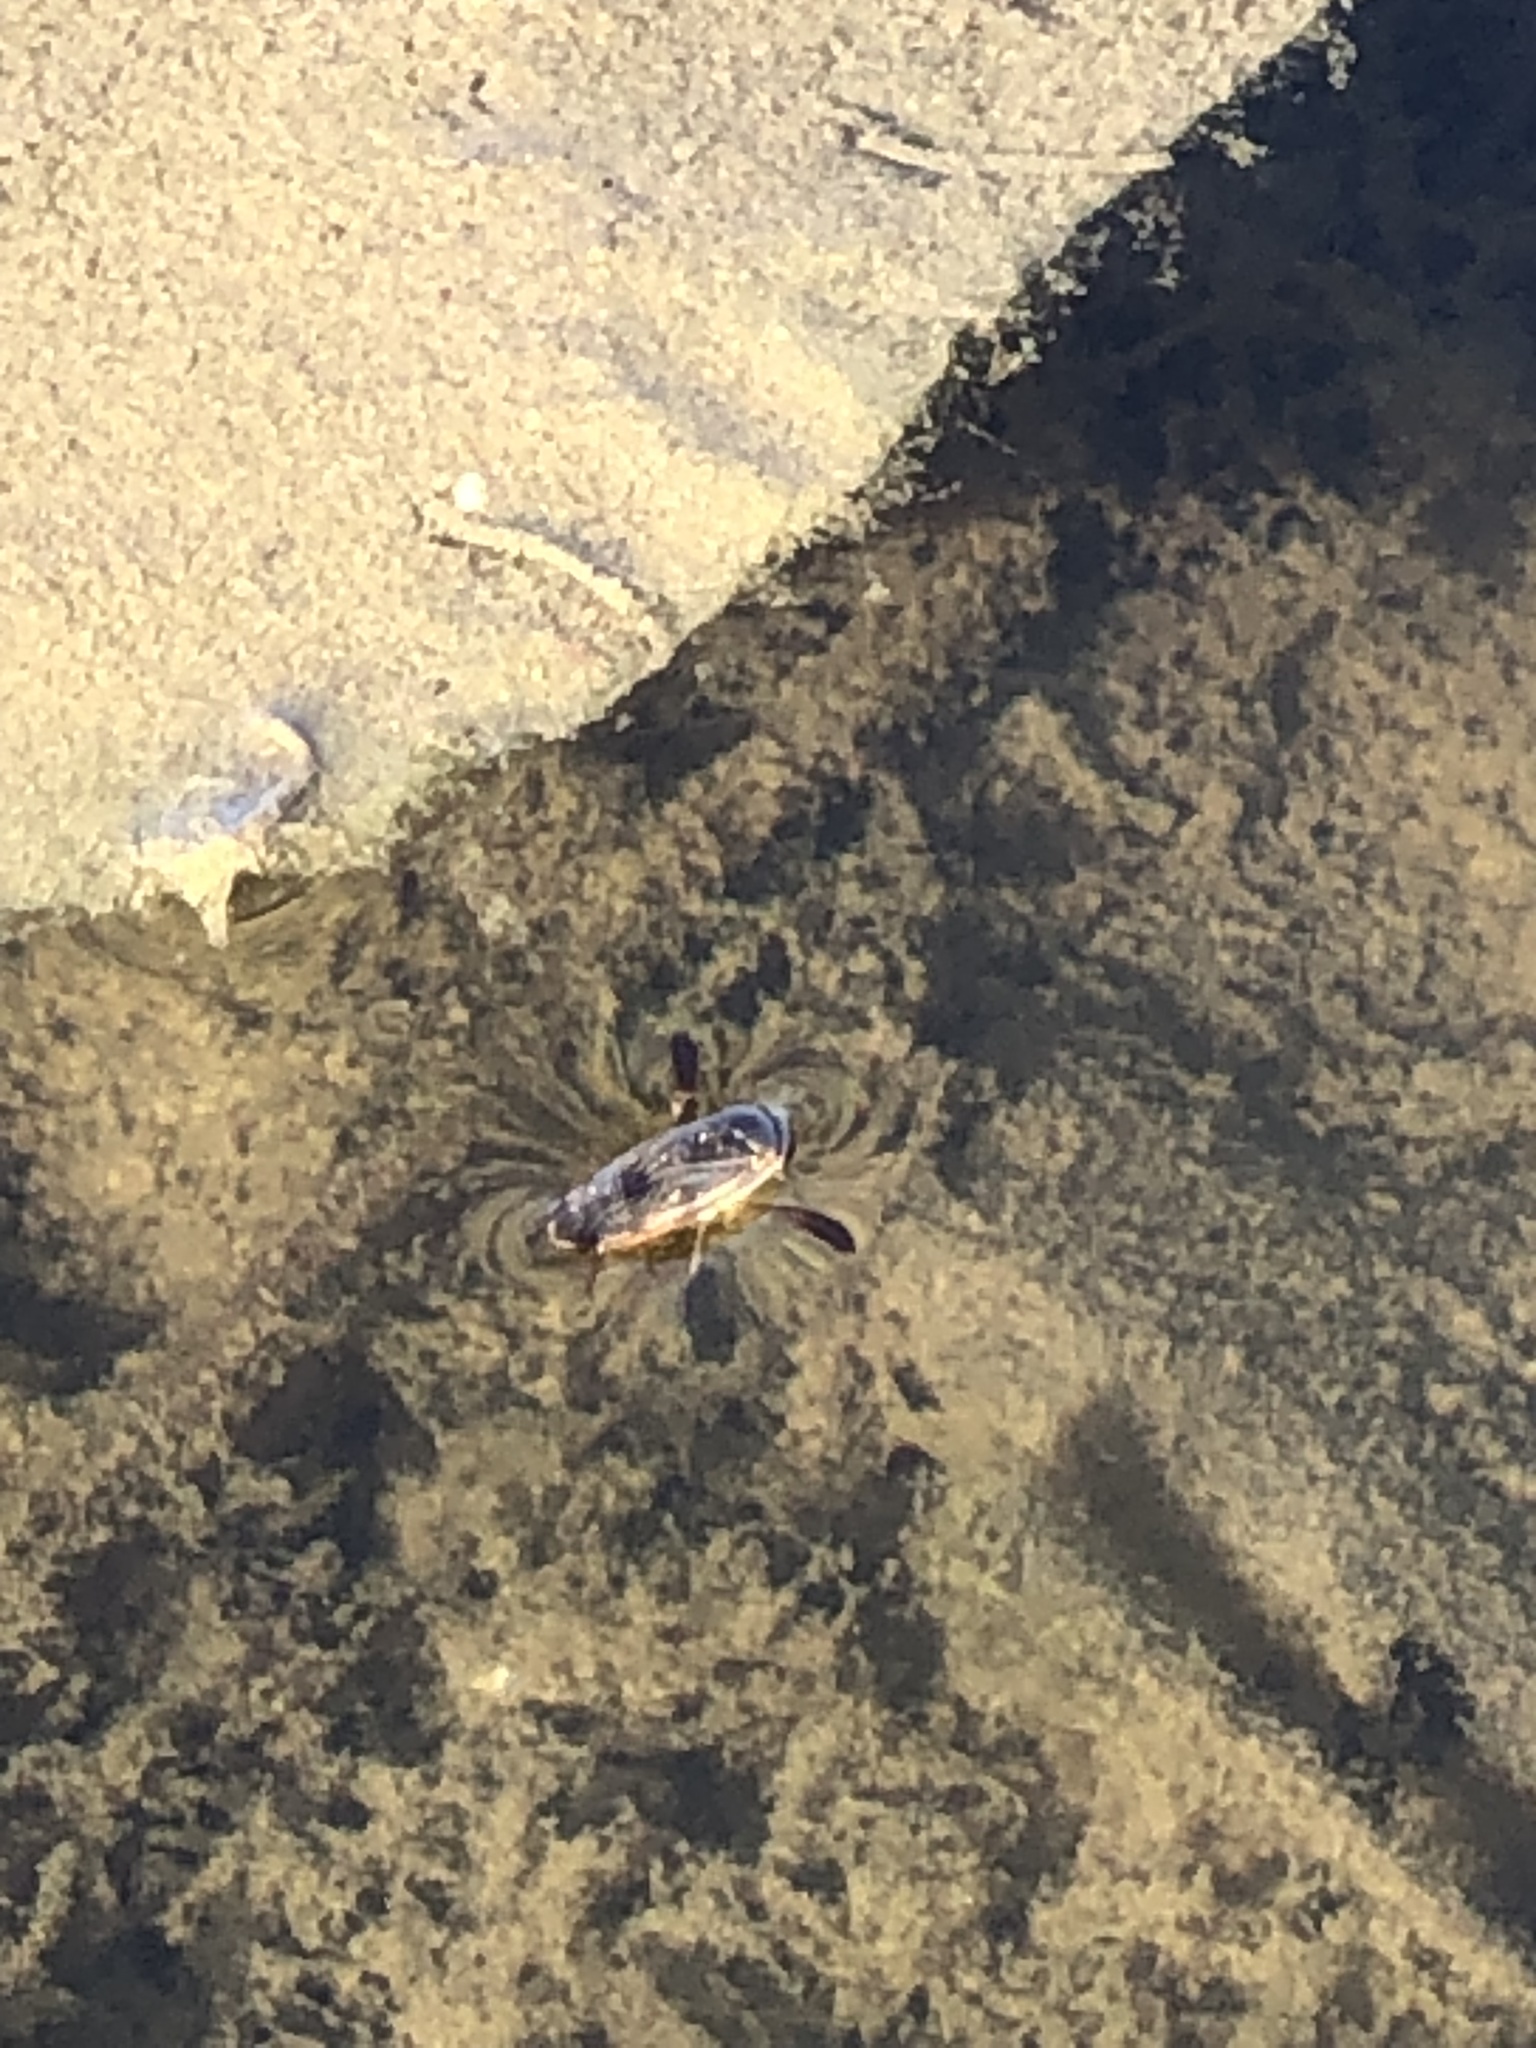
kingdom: Animalia
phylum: Arthropoda
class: Insecta
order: Hemiptera
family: Corixidae
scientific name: Corixidae
